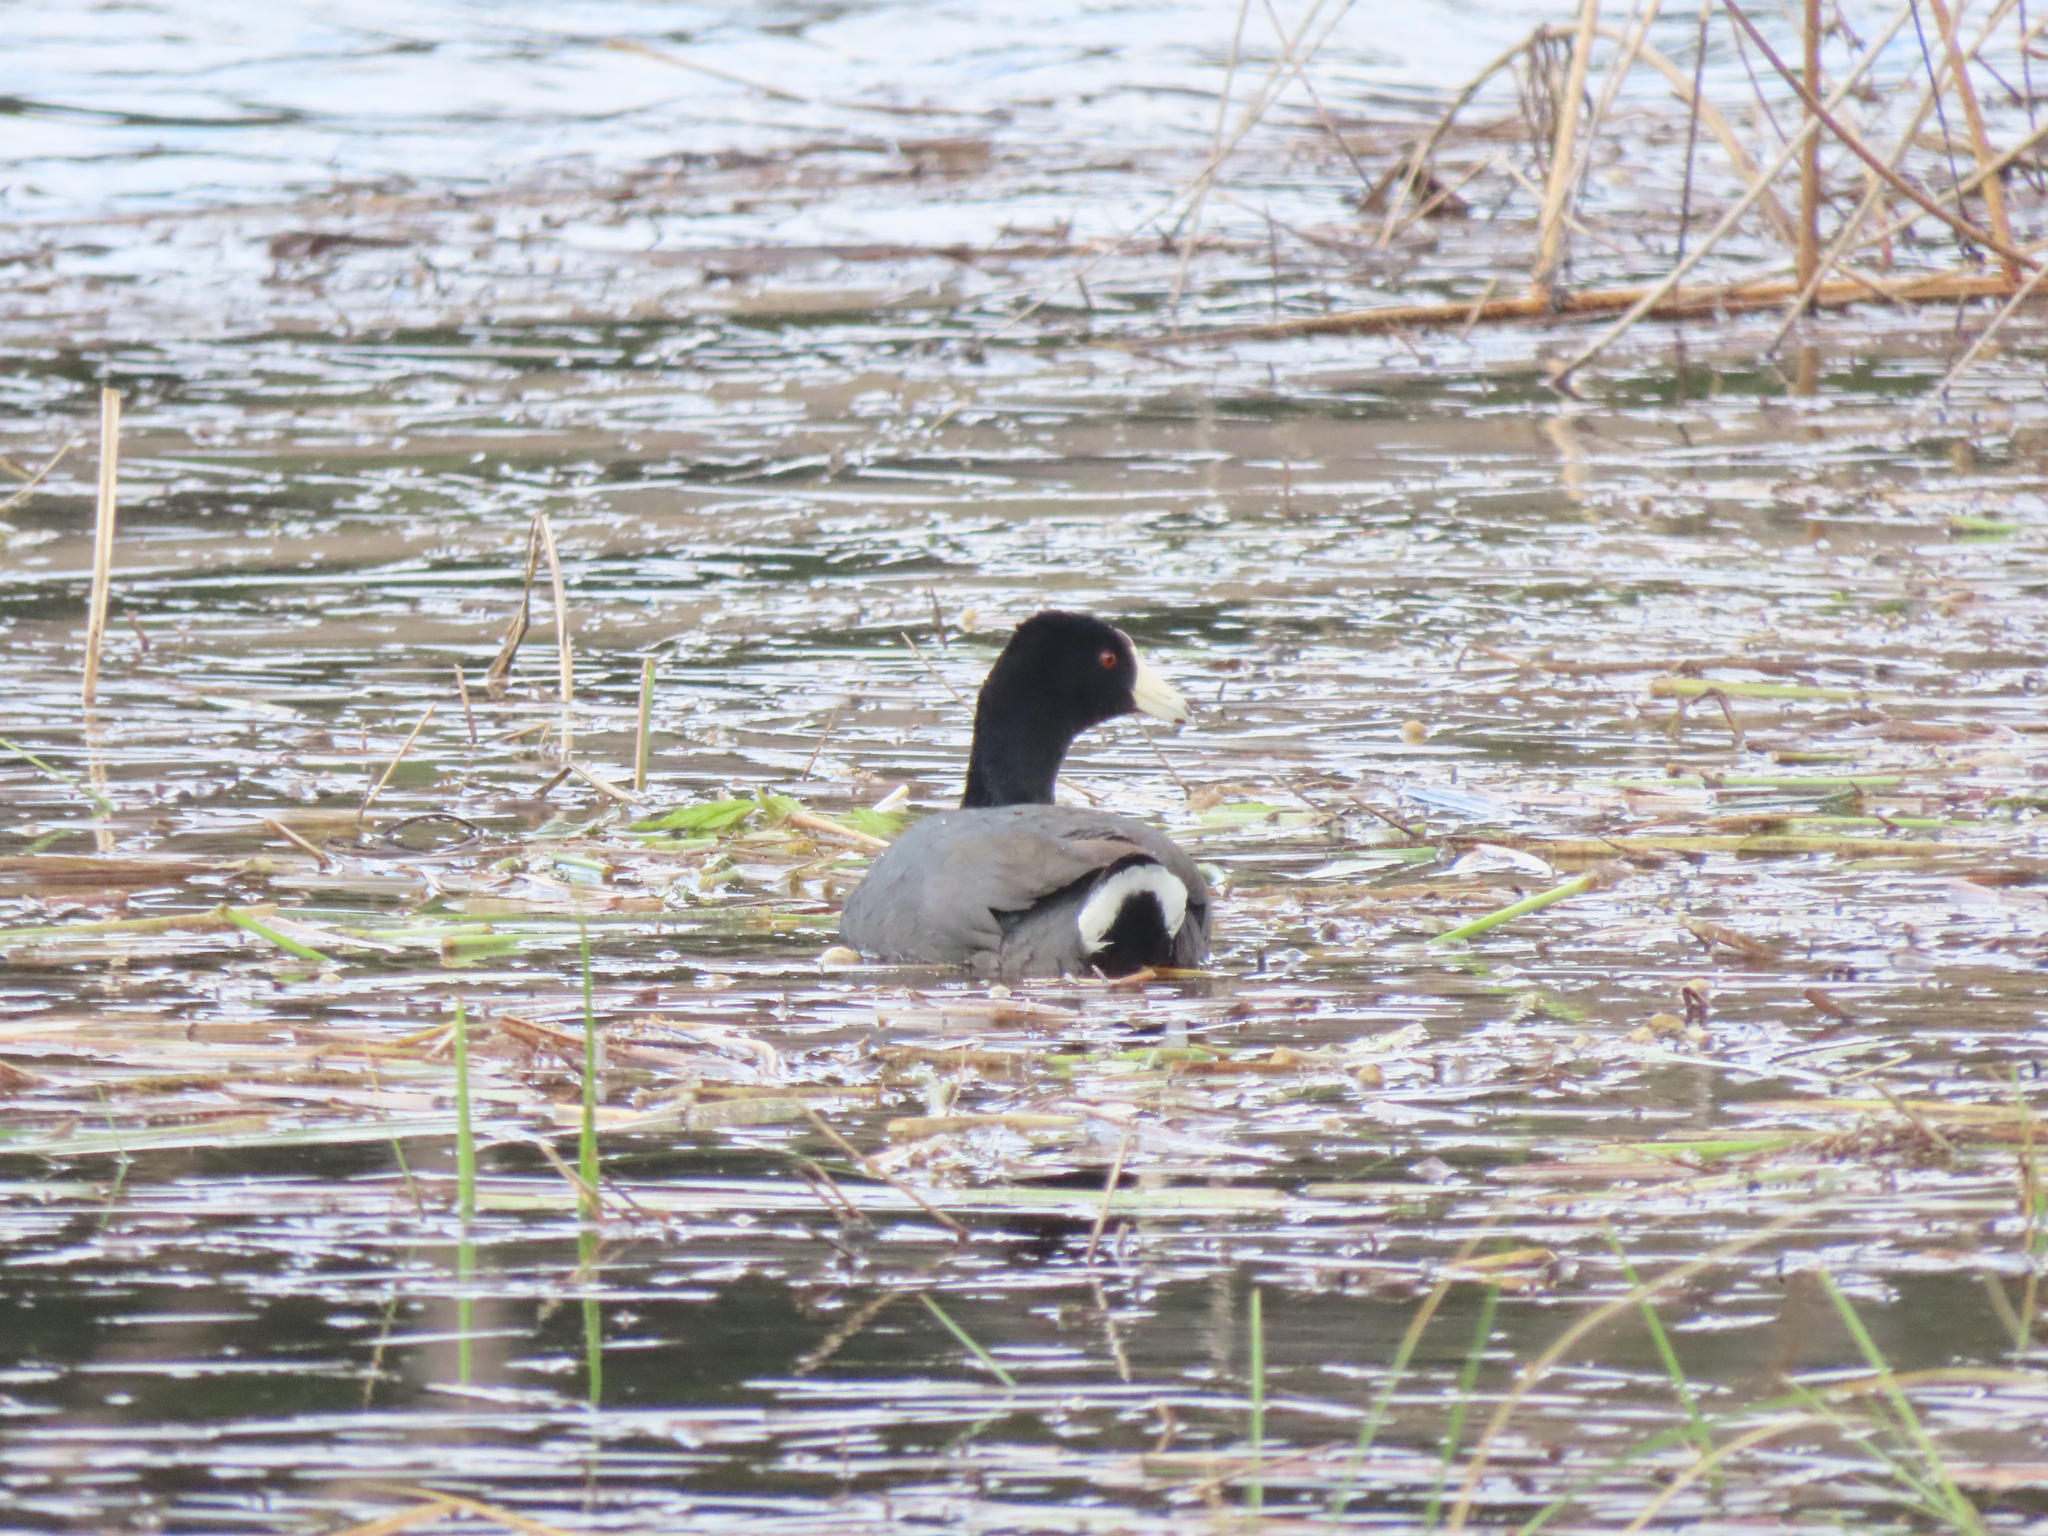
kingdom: Animalia
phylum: Chordata
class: Aves
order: Gruiformes
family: Rallidae
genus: Fulica
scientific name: Fulica americana
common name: American coot
